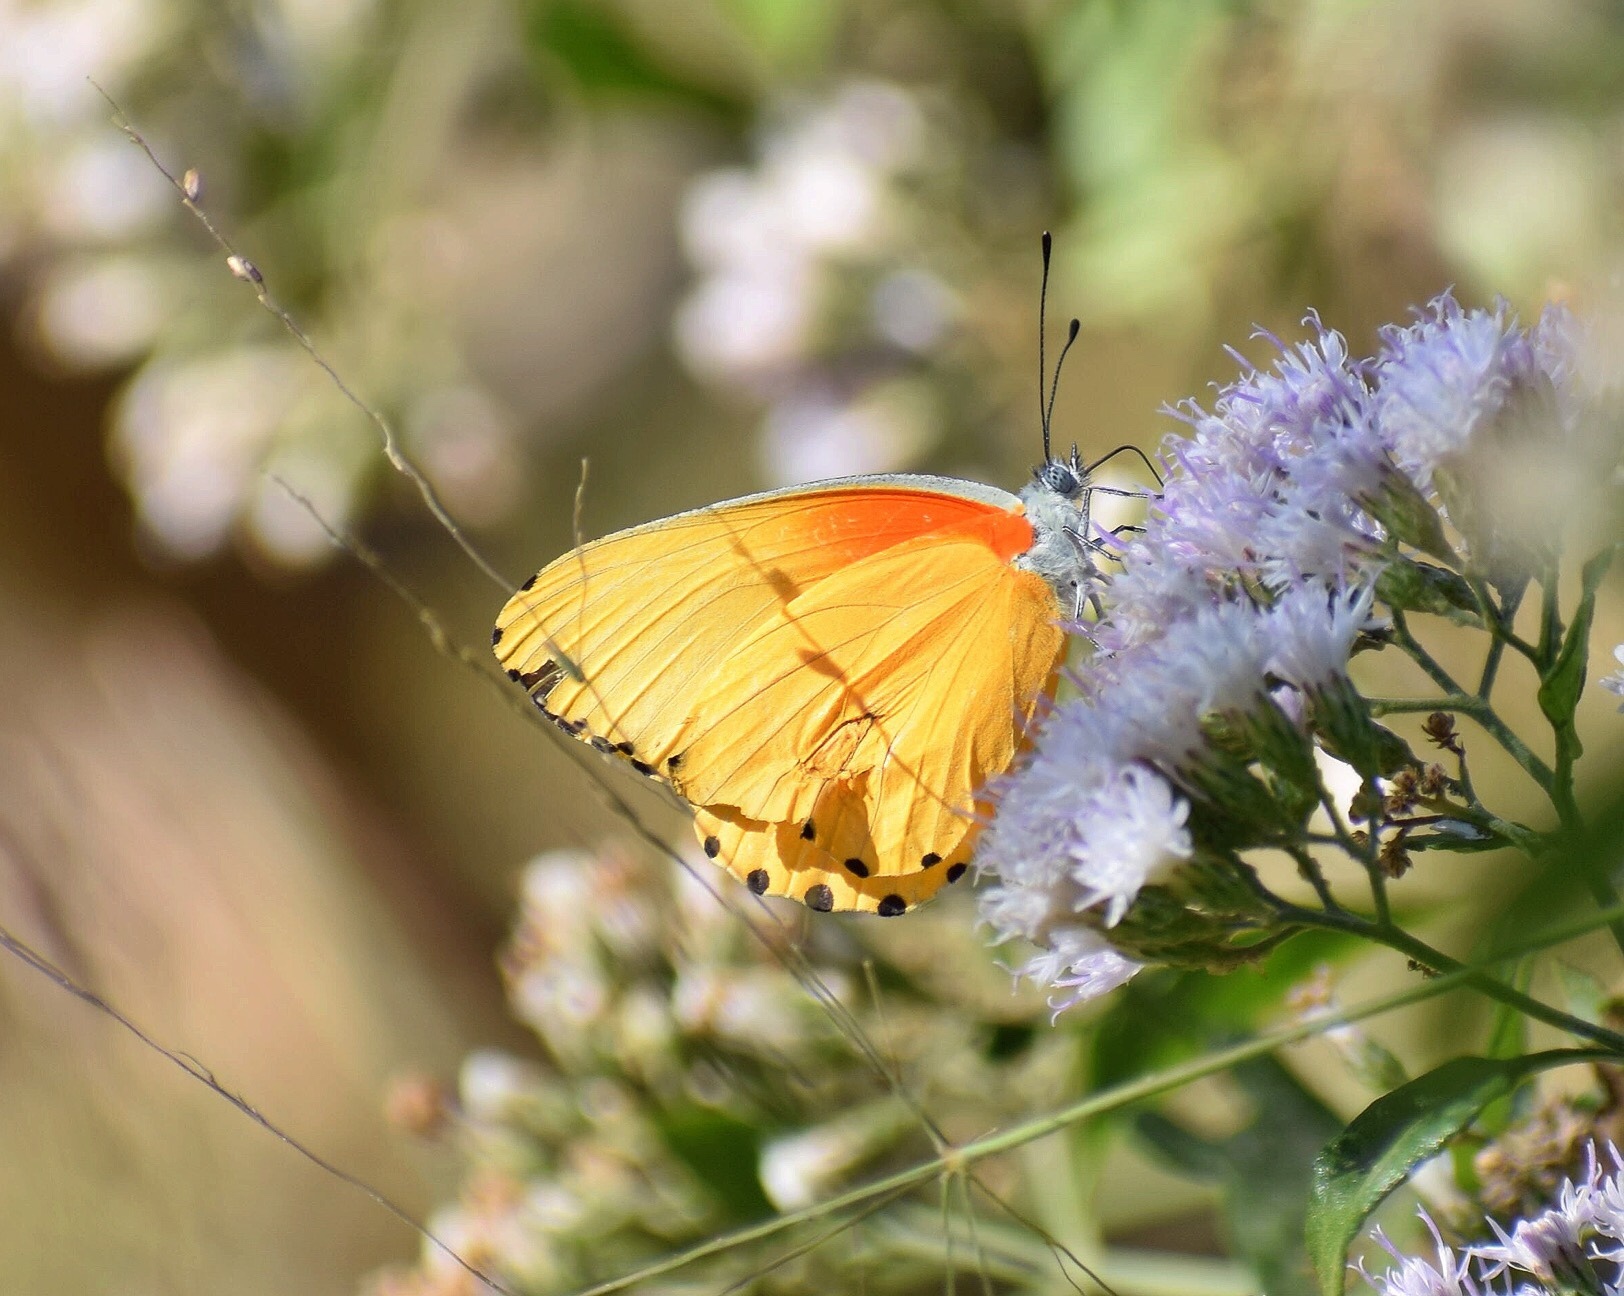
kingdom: Animalia
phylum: Arthropoda
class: Insecta
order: Lepidoptera
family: Pieridae
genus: Mylothris
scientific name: Mylothris agathina
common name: Eastern dotted border
